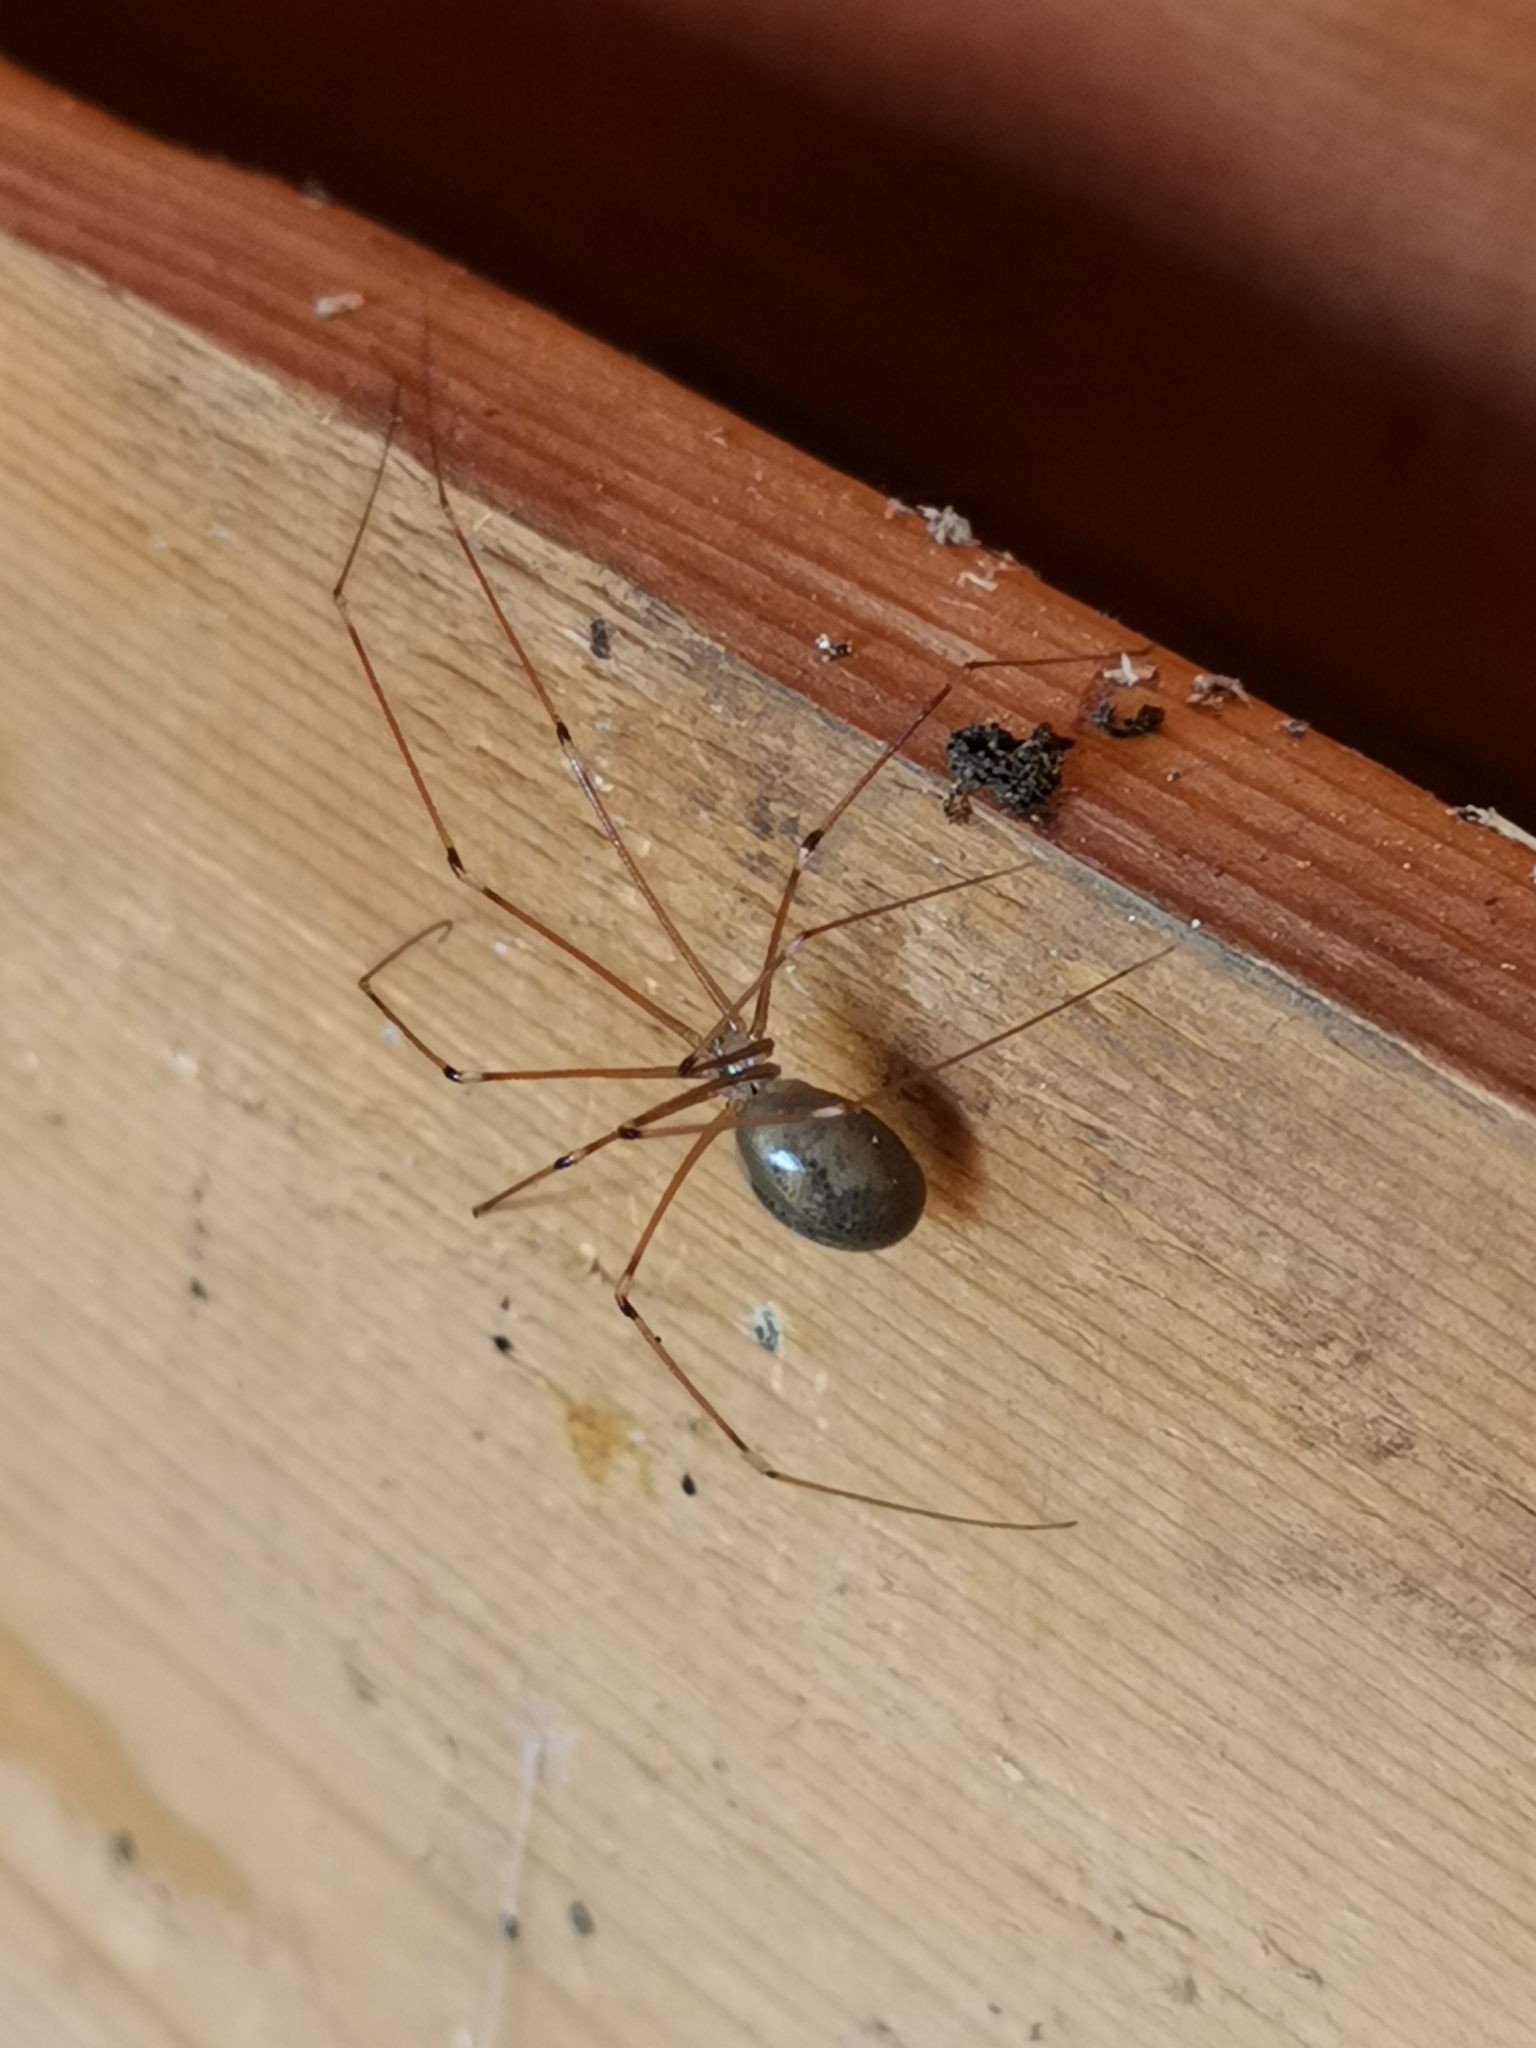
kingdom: Animalia
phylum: Arthropoda
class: Arachnida
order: Araneae
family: Pholcidae
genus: Pholcus
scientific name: Pholcus phalangioides
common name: Longbodied cellar spider
